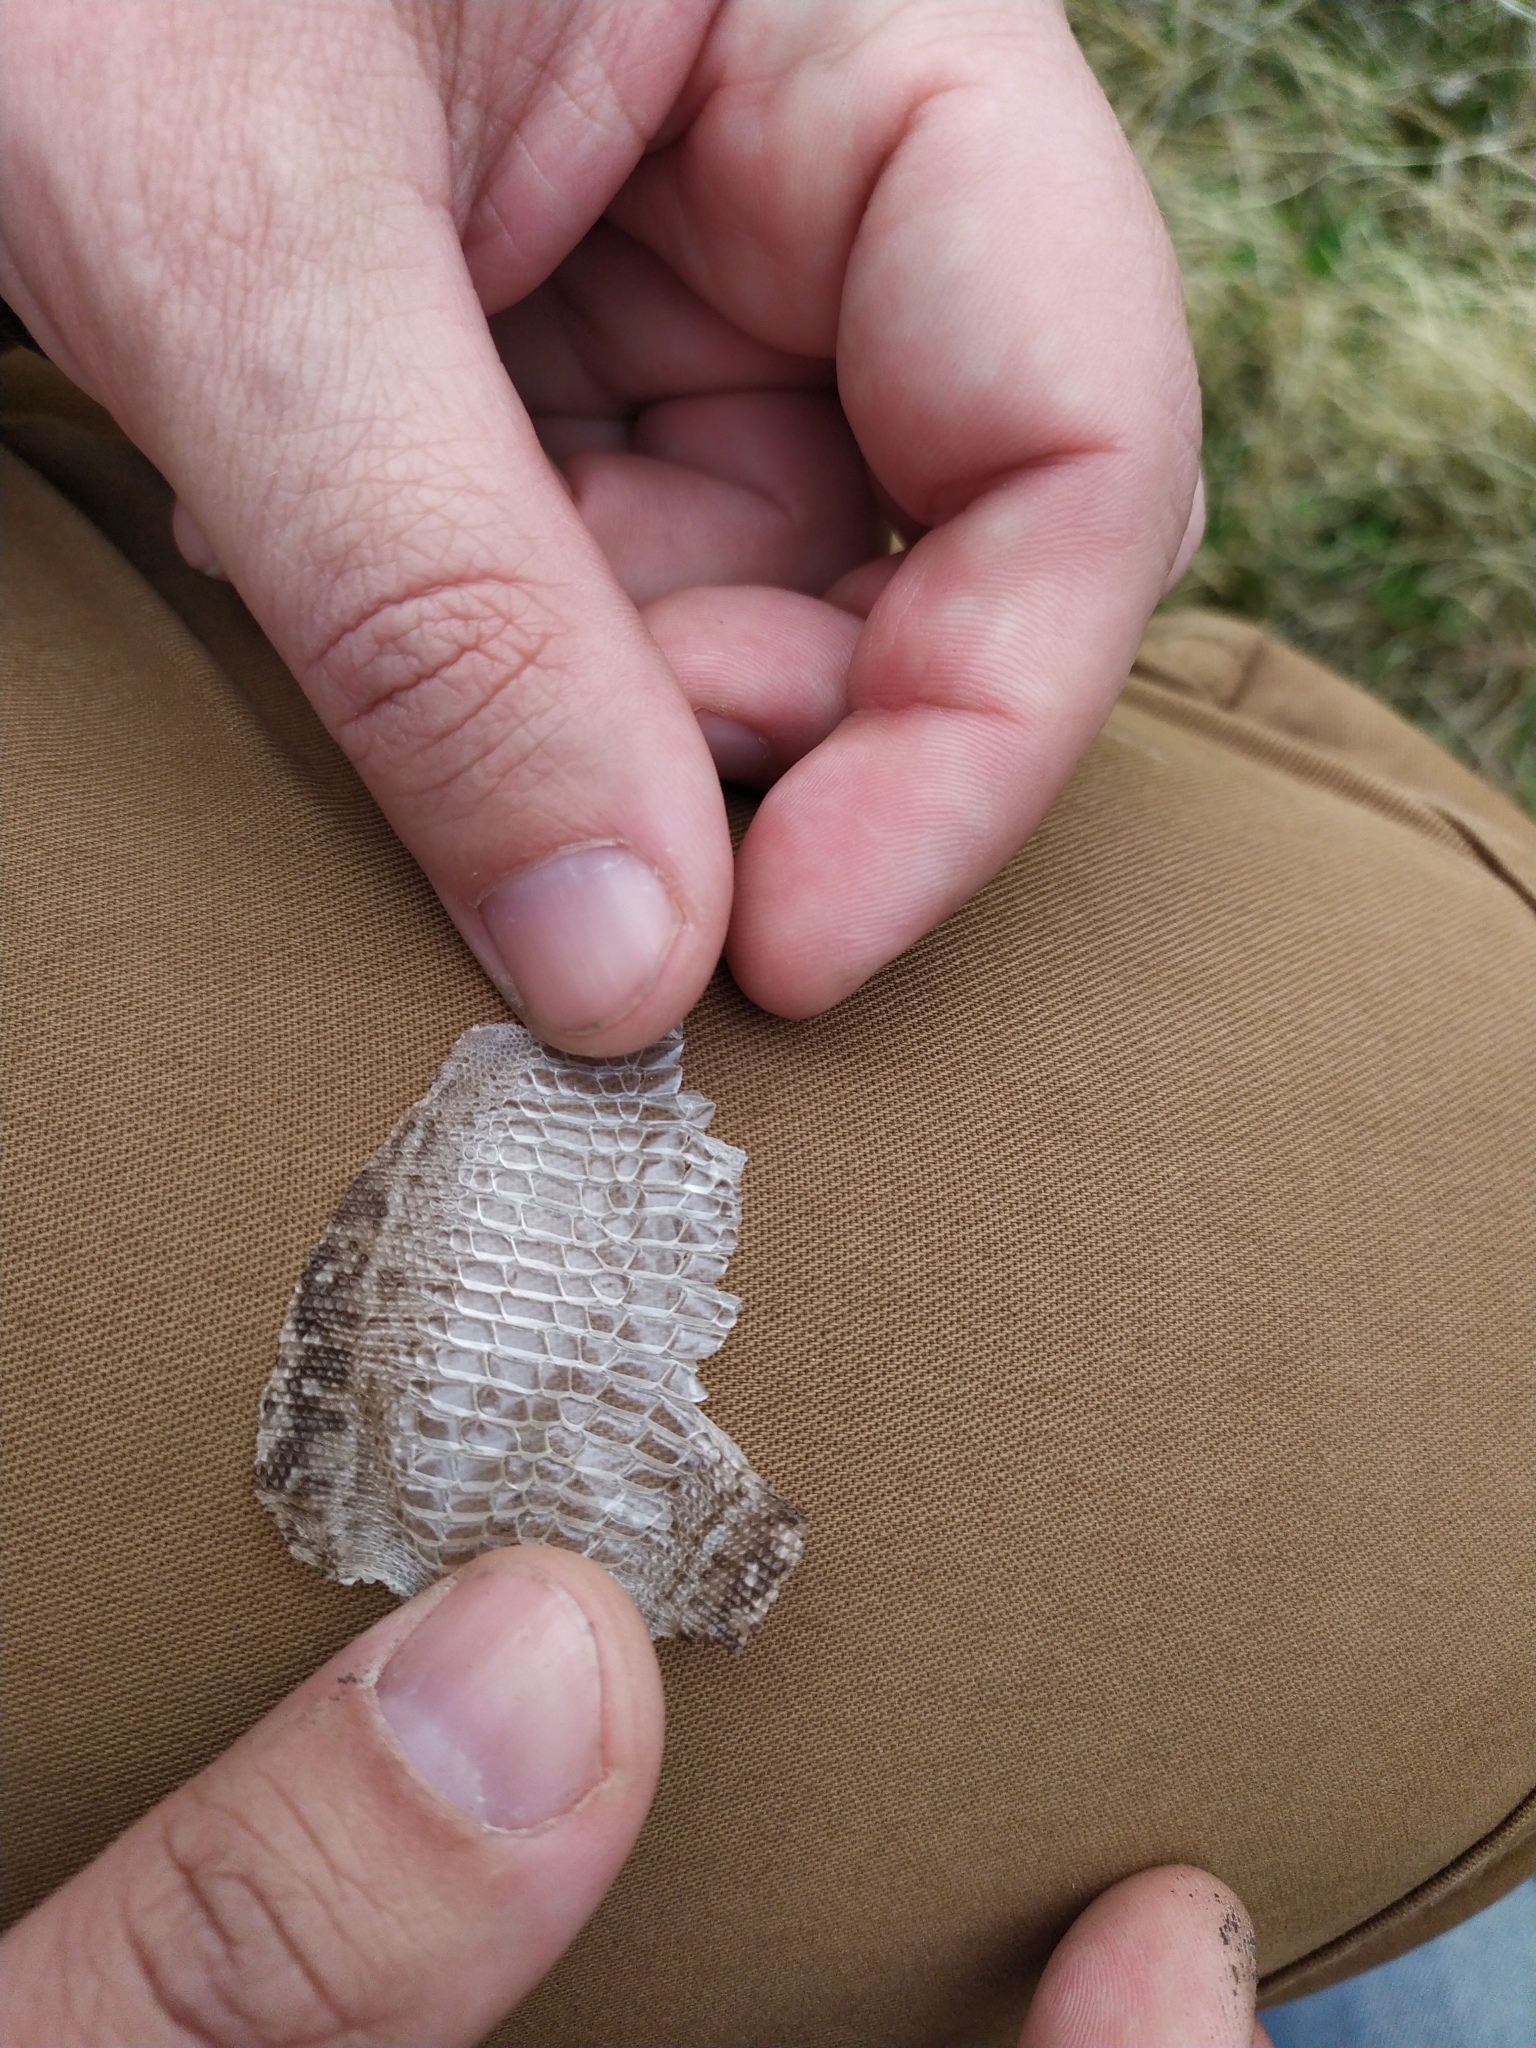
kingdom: Animalia
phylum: Chordata
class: Squamata
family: Lacertidae
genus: Lacerta
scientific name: Lacerta agilis
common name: Sand lizard
